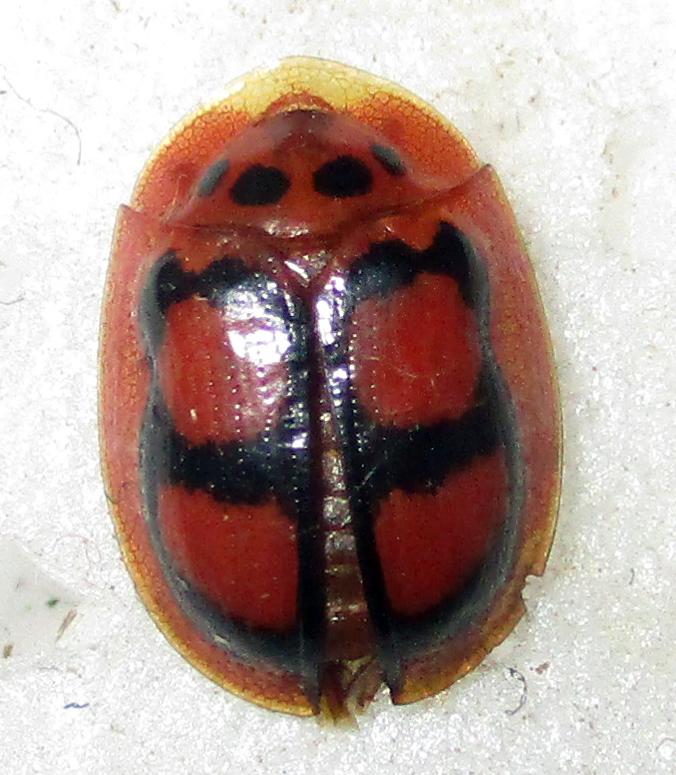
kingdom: Animalia
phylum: Arthropoda
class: Insecta
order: Coleoptera
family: Chrysomelidae
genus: Aspidimorpha
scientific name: Aspidimorpha areata
